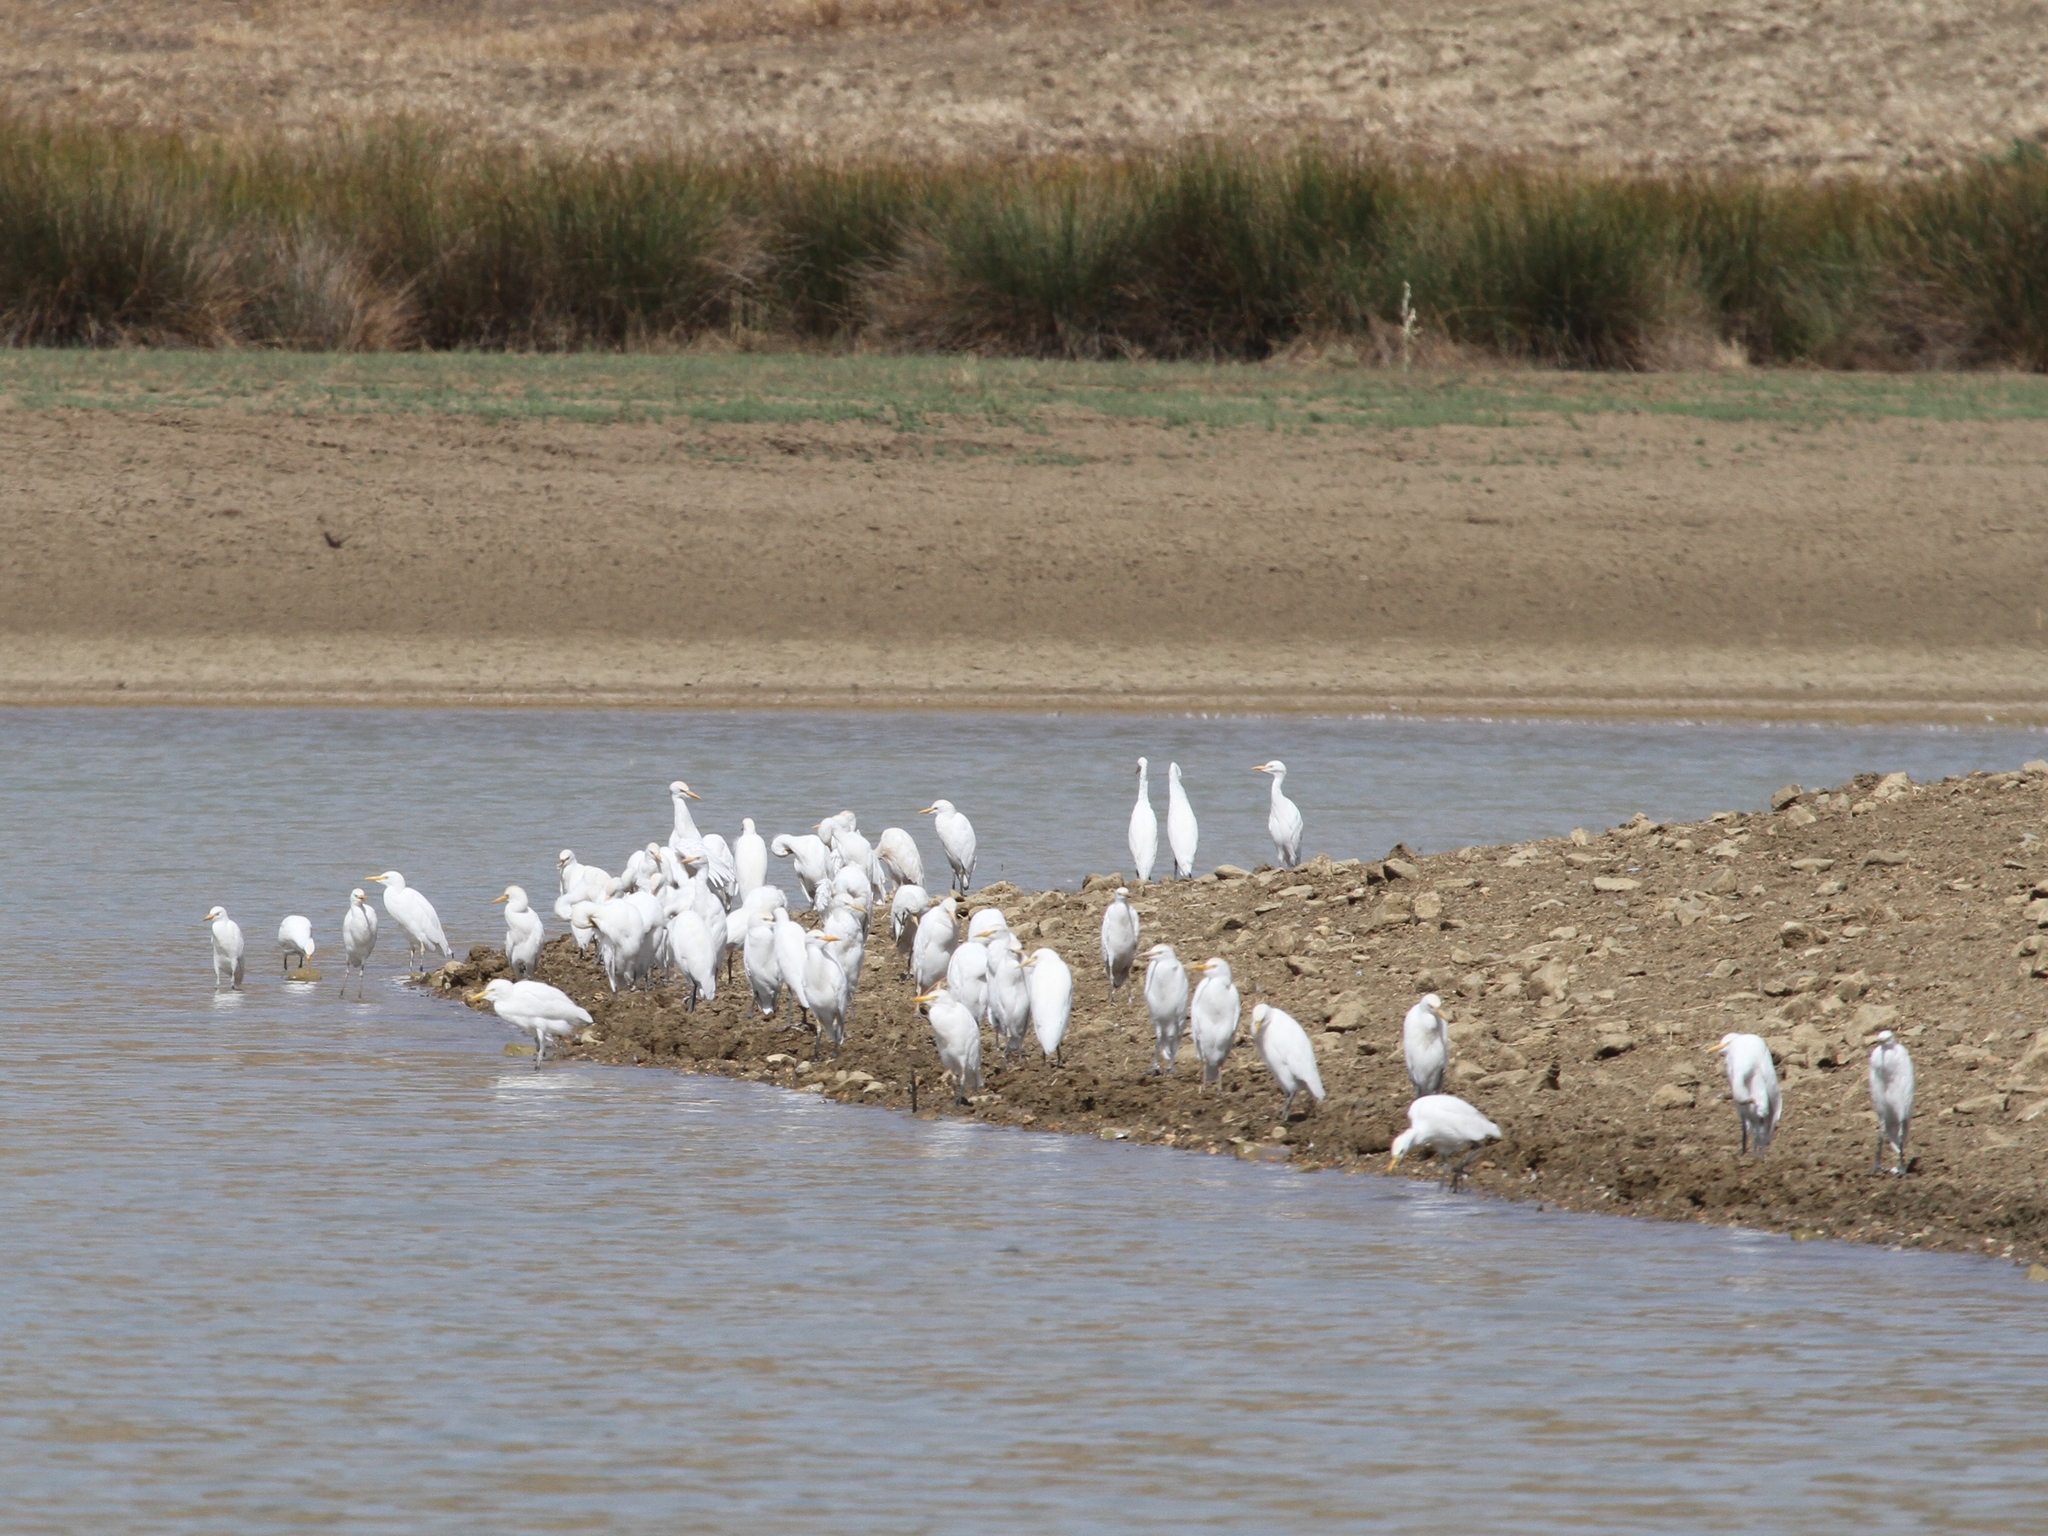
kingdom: Animalia
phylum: Chordata
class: Aves
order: Pelecaniformes
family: Ardeidae
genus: Bubulcus
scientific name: Bubulcus ibis
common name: Cattle egret
